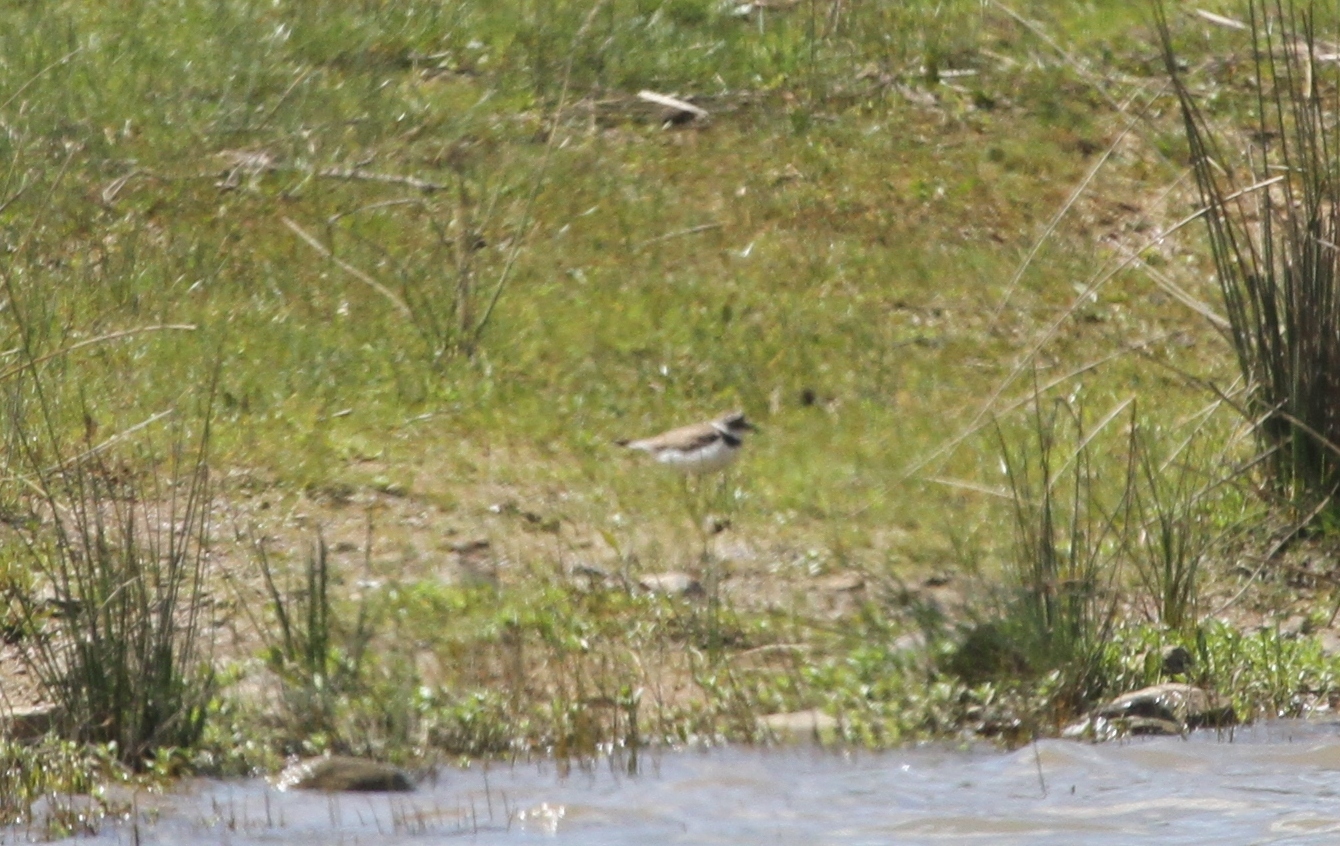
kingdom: Animalia
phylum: Chordata
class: Aves
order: Charadriiformes
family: Charadriidae
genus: Charadrius
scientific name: Charadrius dubius
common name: Little ringed plover
